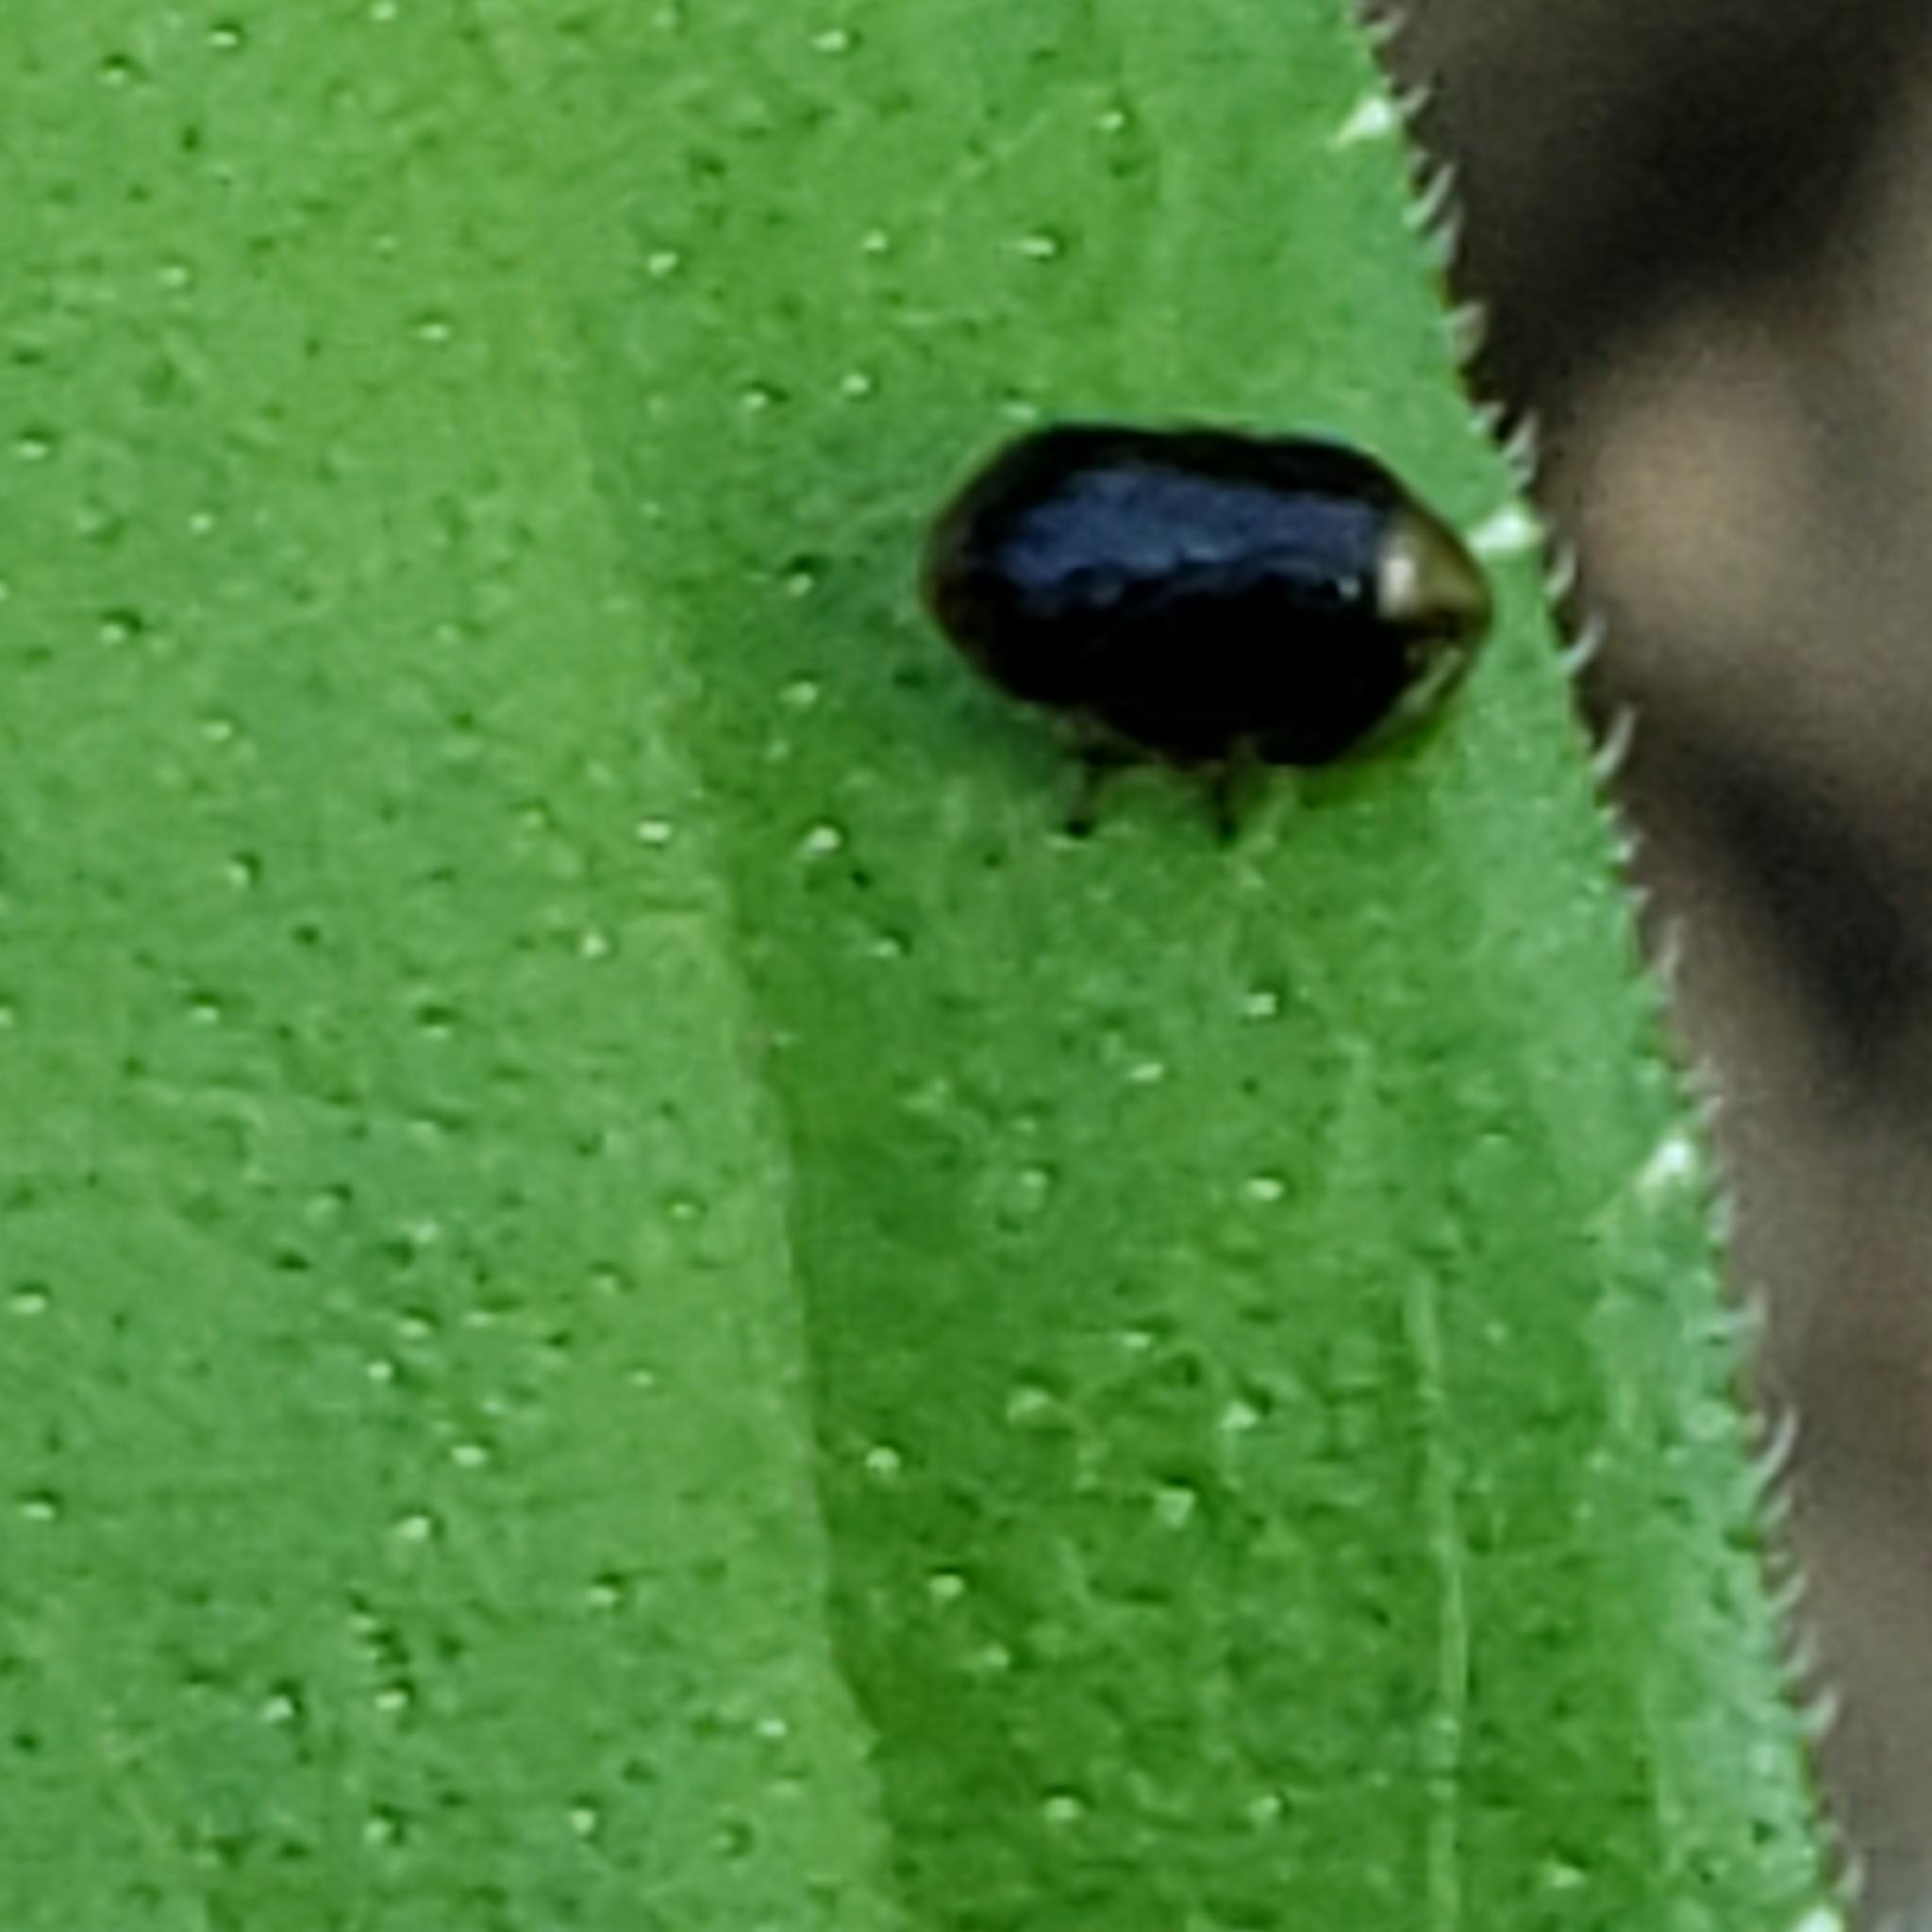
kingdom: Animalia
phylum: Arthropoda
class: Insecta
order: Hemiptera
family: Clastopteridae
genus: Clastoptera
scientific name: Clastoptera xanthocephala
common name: Sunflower spittlebug
